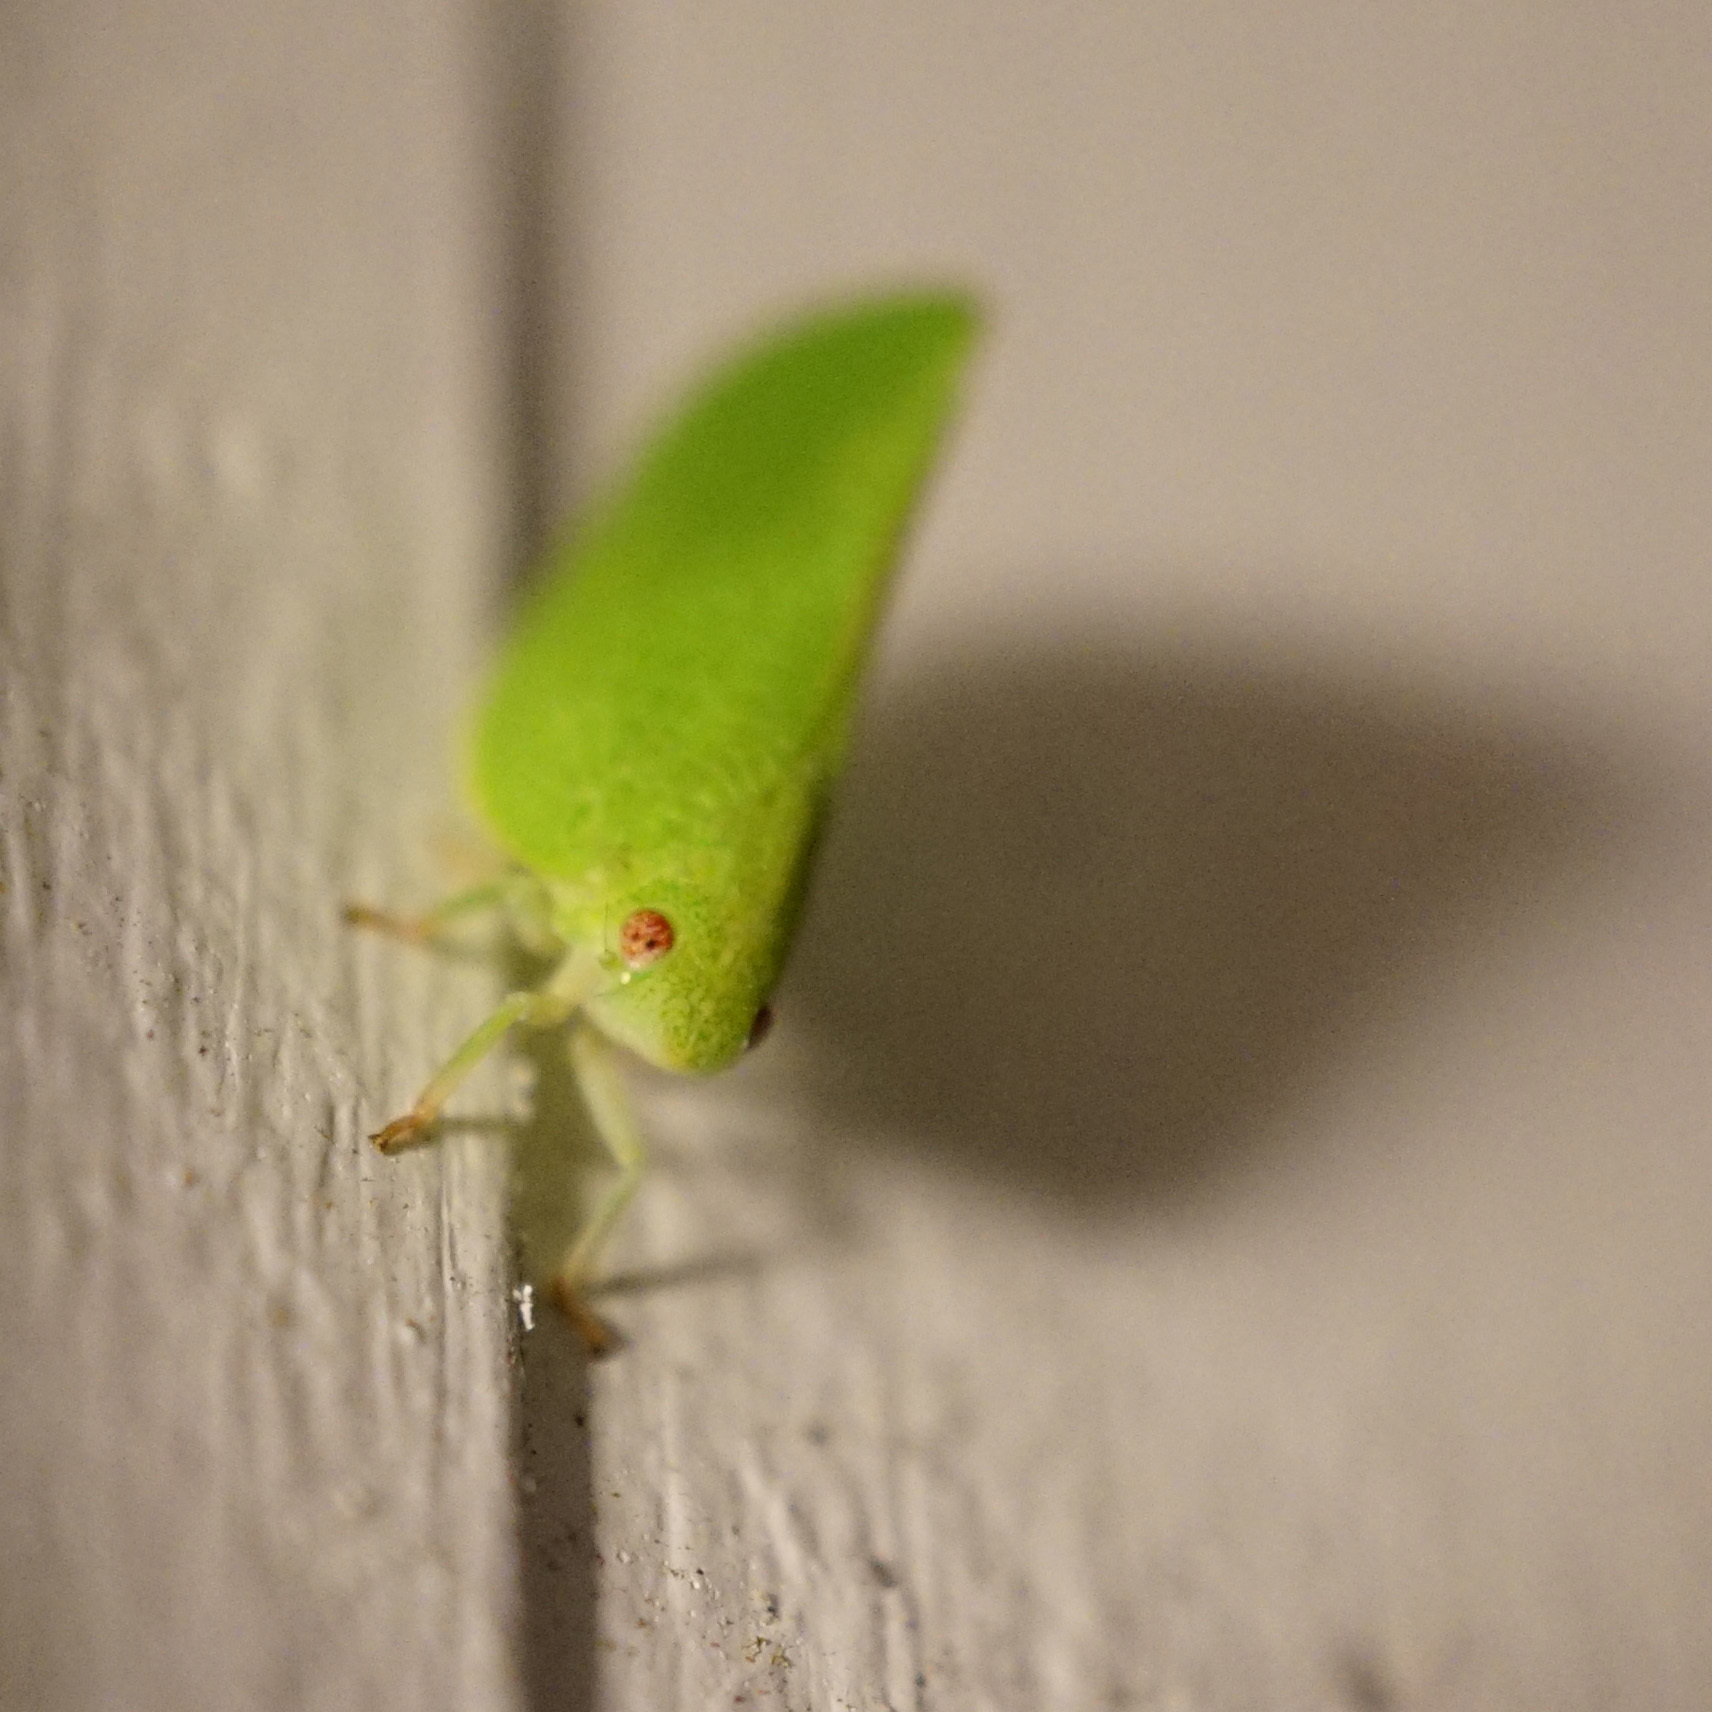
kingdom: Animalia
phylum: Arthropoda
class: Insecta
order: Hemiptera
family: Acanaloniidae
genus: Acanalonia
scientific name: Acanalonia conica
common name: Green cone-headed planthopper
